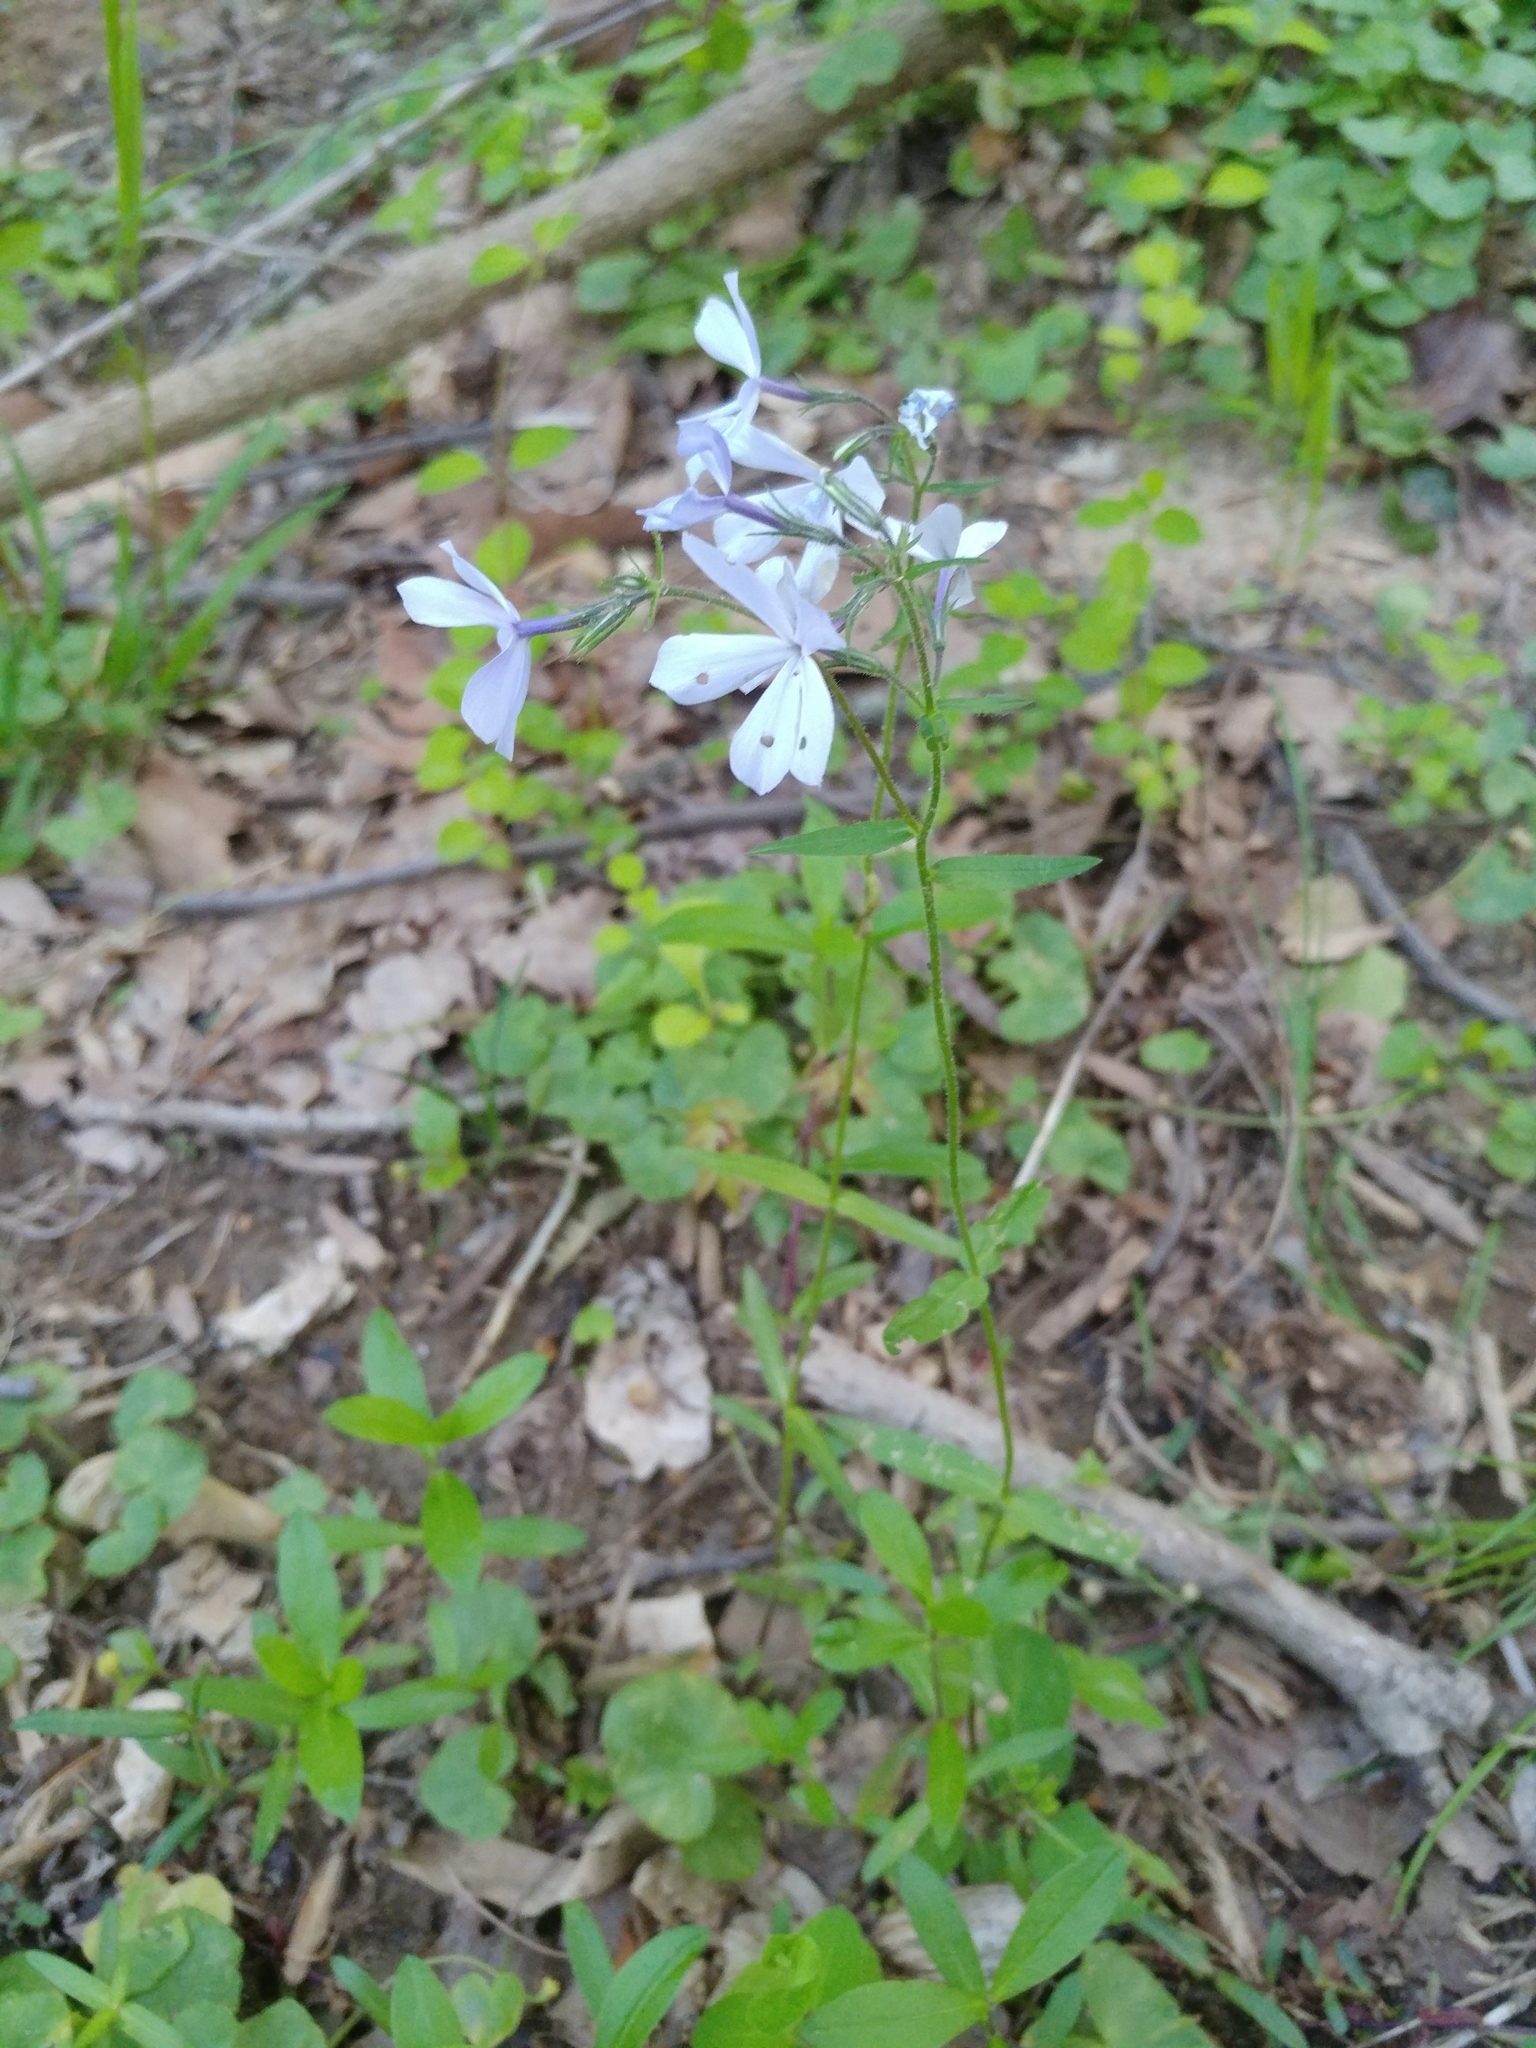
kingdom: Plantae
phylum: Tracheophyta
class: Magnoliopsida
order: Ericales
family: Polemoniaceae
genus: Phlox
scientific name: Phlox divaricata
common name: Blue phlox
